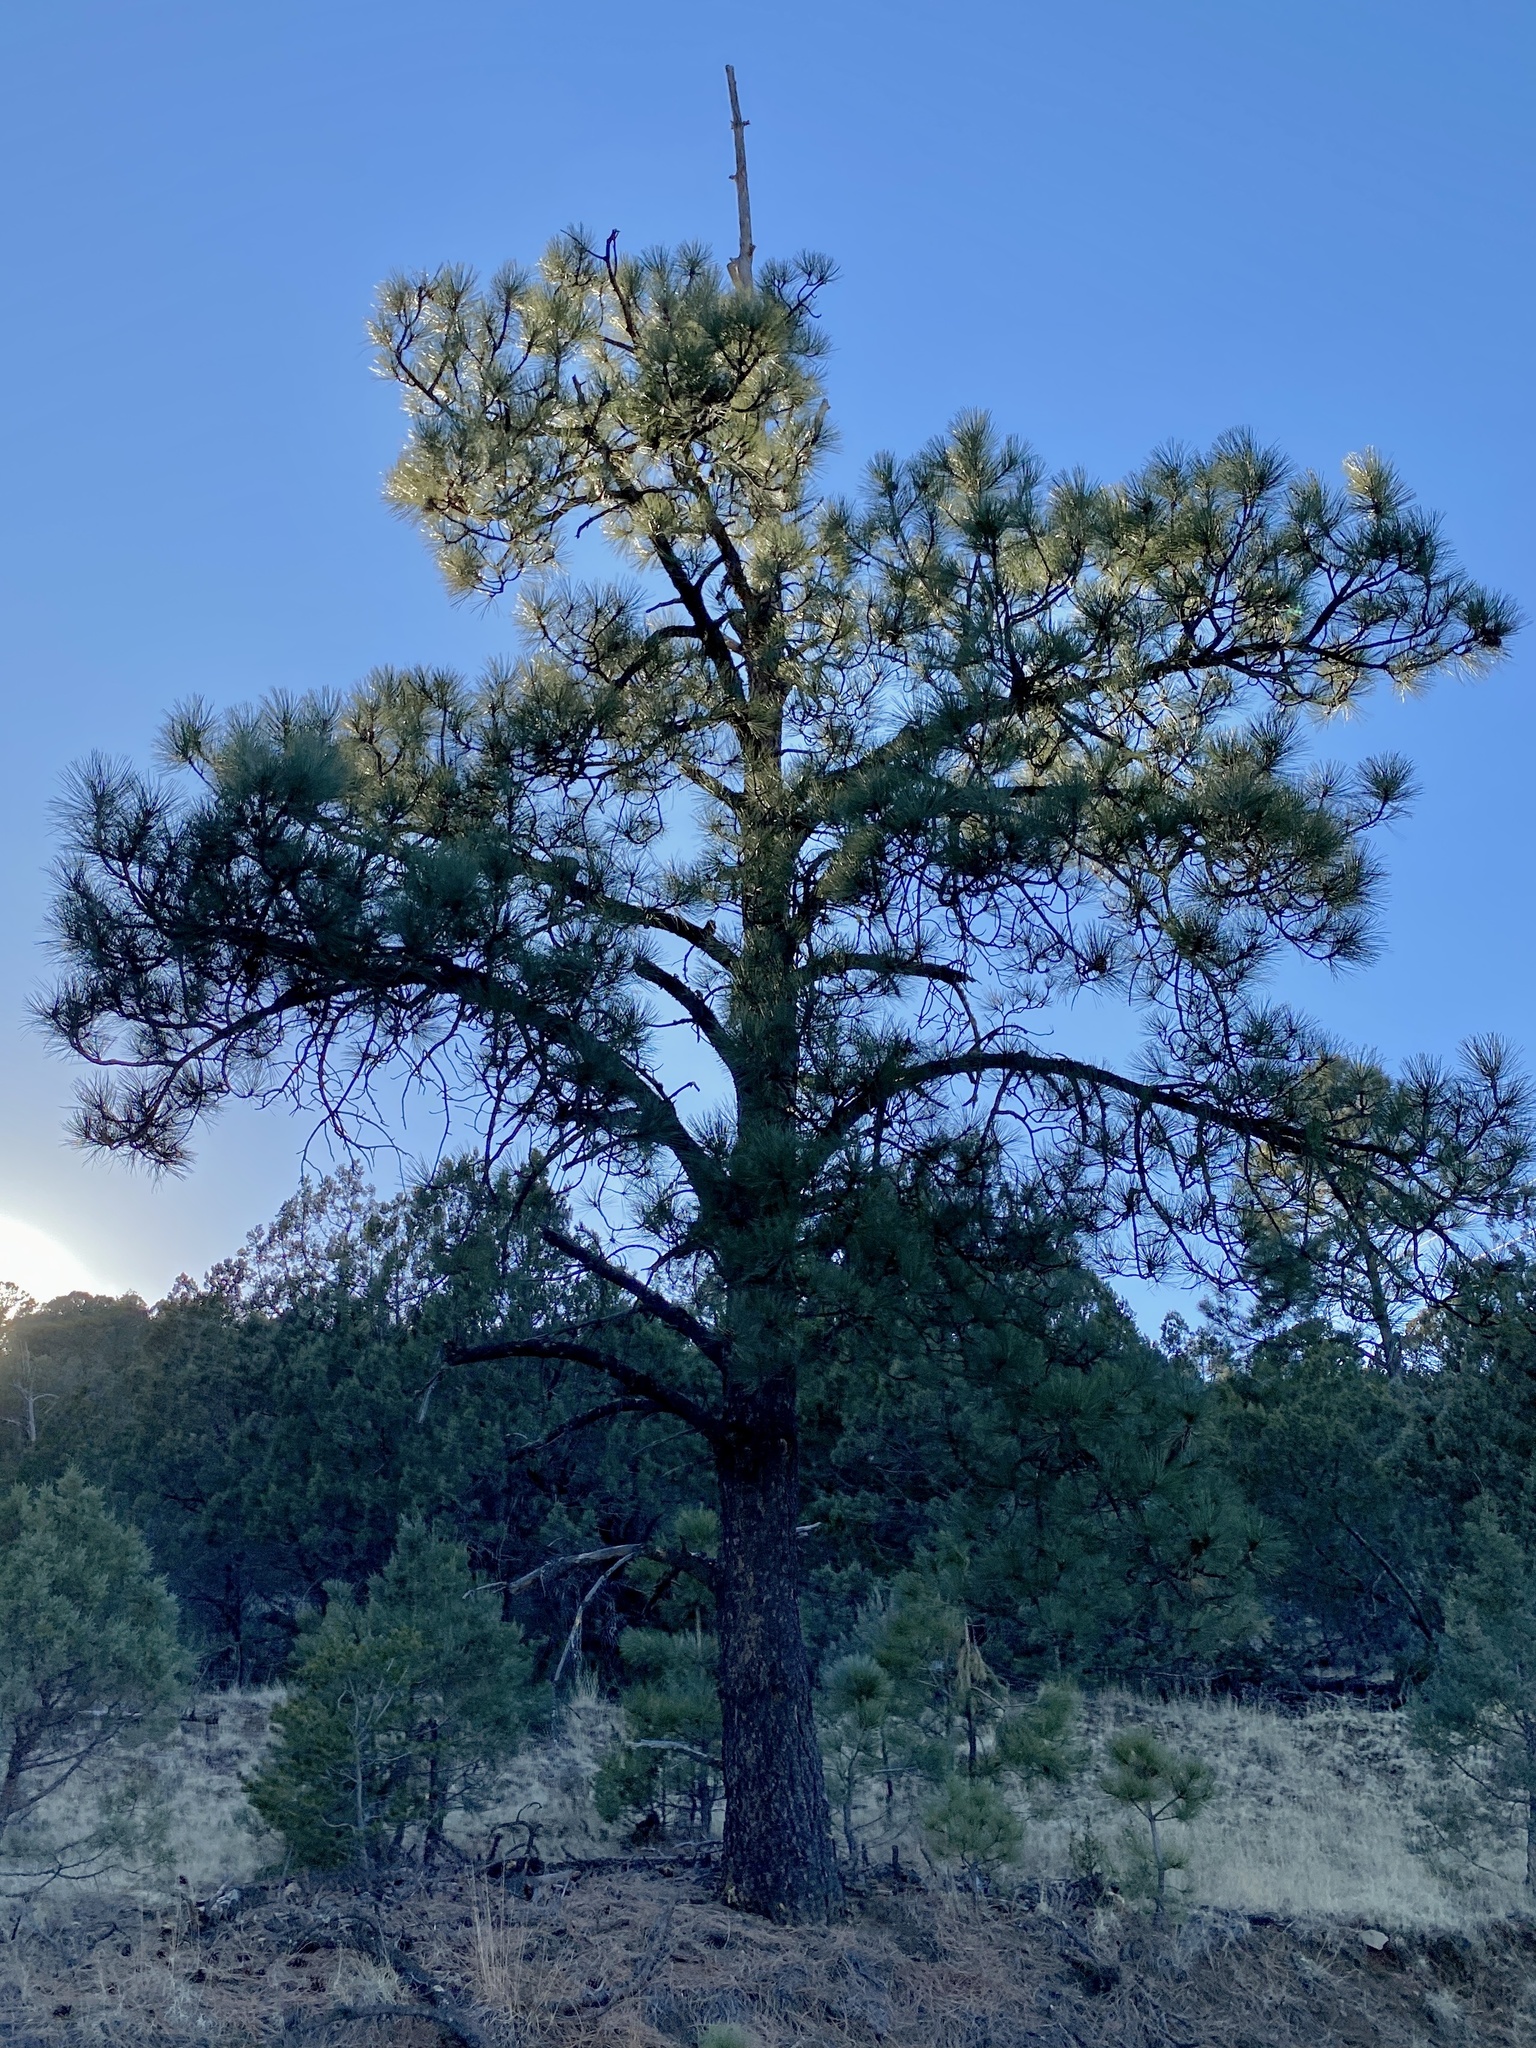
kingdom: Plantae
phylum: Tracheophyta
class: Pinopsida
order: Pinales
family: Pinaceae
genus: Pinus
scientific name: Pinus ponderosa
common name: Western yellow-pine
